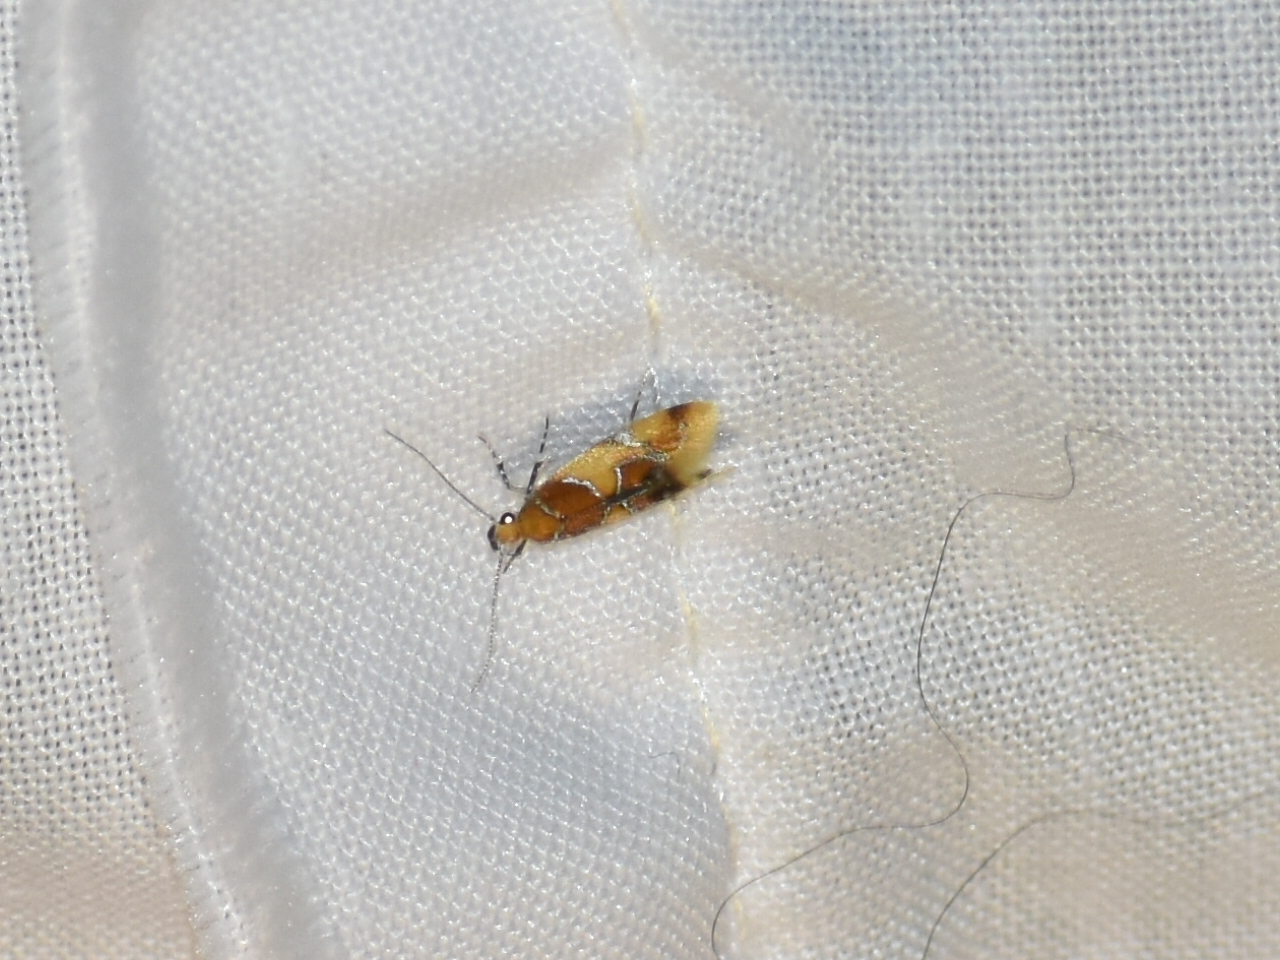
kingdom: Animalia
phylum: Arthropoda
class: Insecta
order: Lepidoptera
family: Oecophoridae
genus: Callima
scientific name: Callima argenticinctella
